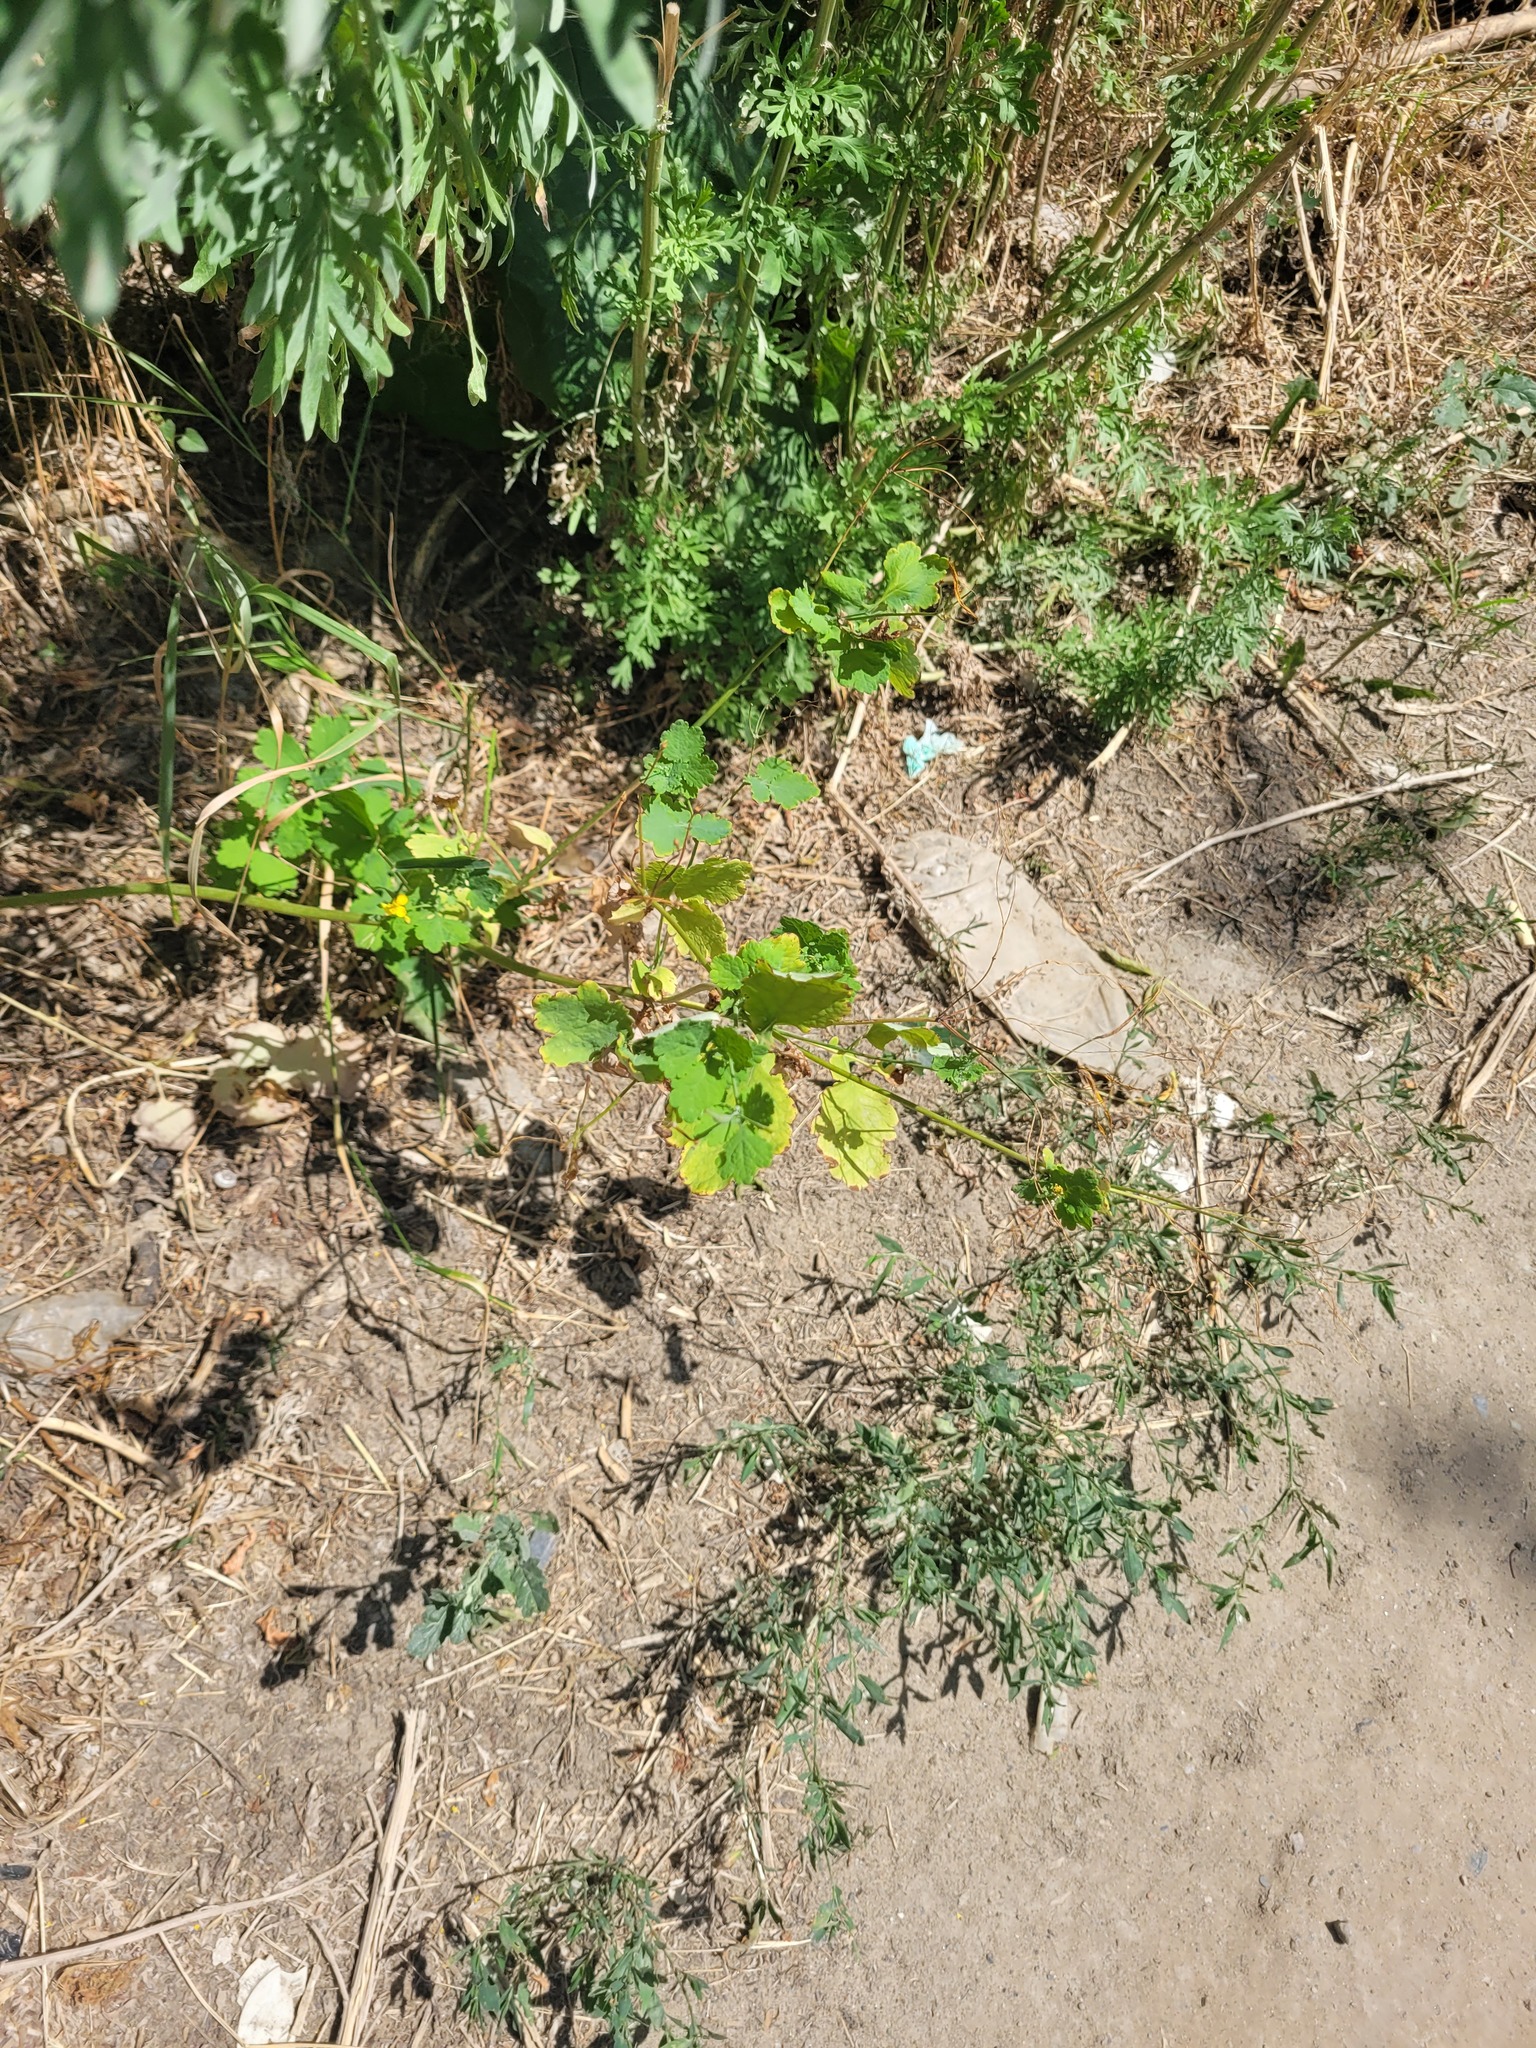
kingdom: Plantae
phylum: Tracheophyta
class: Magnoliopsida
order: Ranunculales
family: Papaveraceae
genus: Chelidonium
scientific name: Chelidonium majus
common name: Greater celandine
